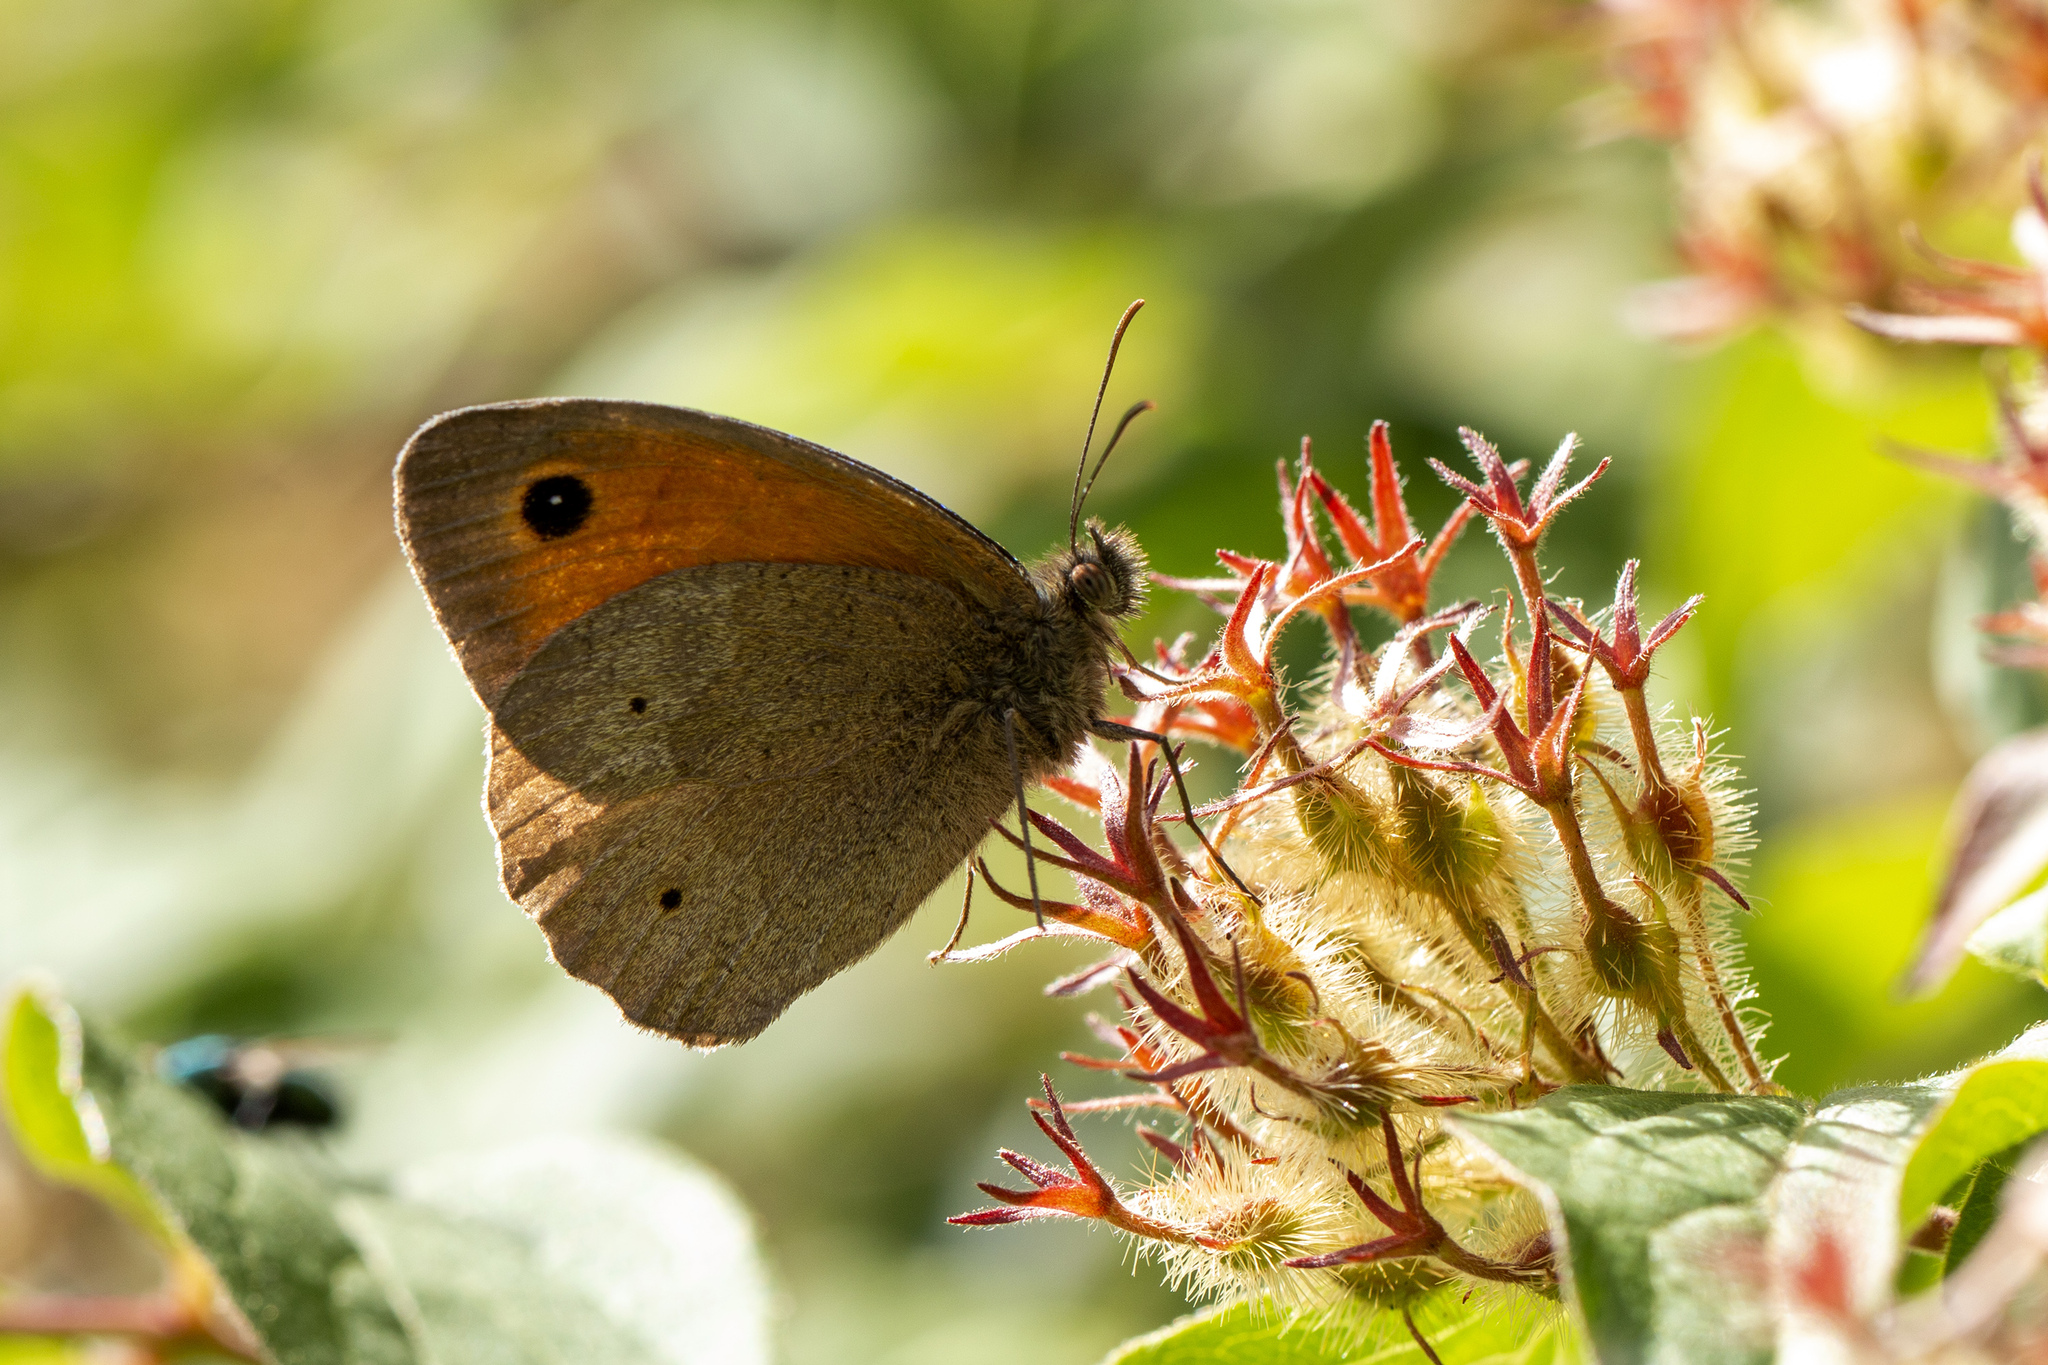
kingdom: Animalia
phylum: Arthropoda
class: Insecta
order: Lepidoptera
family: Nymphalidae
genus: Maniola
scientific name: Maniola jurtina
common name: Meadow brown
